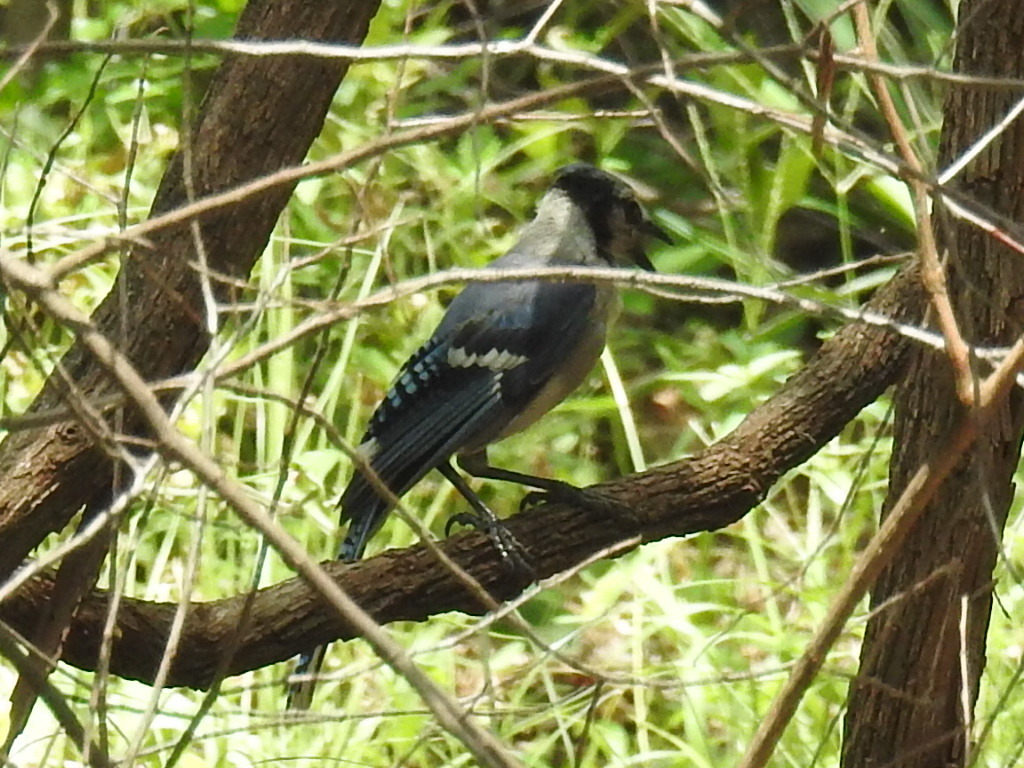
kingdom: Animalia
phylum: Chordata
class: Aves
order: Passeriformes
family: Corvidae
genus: Cyanocitta
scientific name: Cyanocitta cristata
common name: Blue jay
